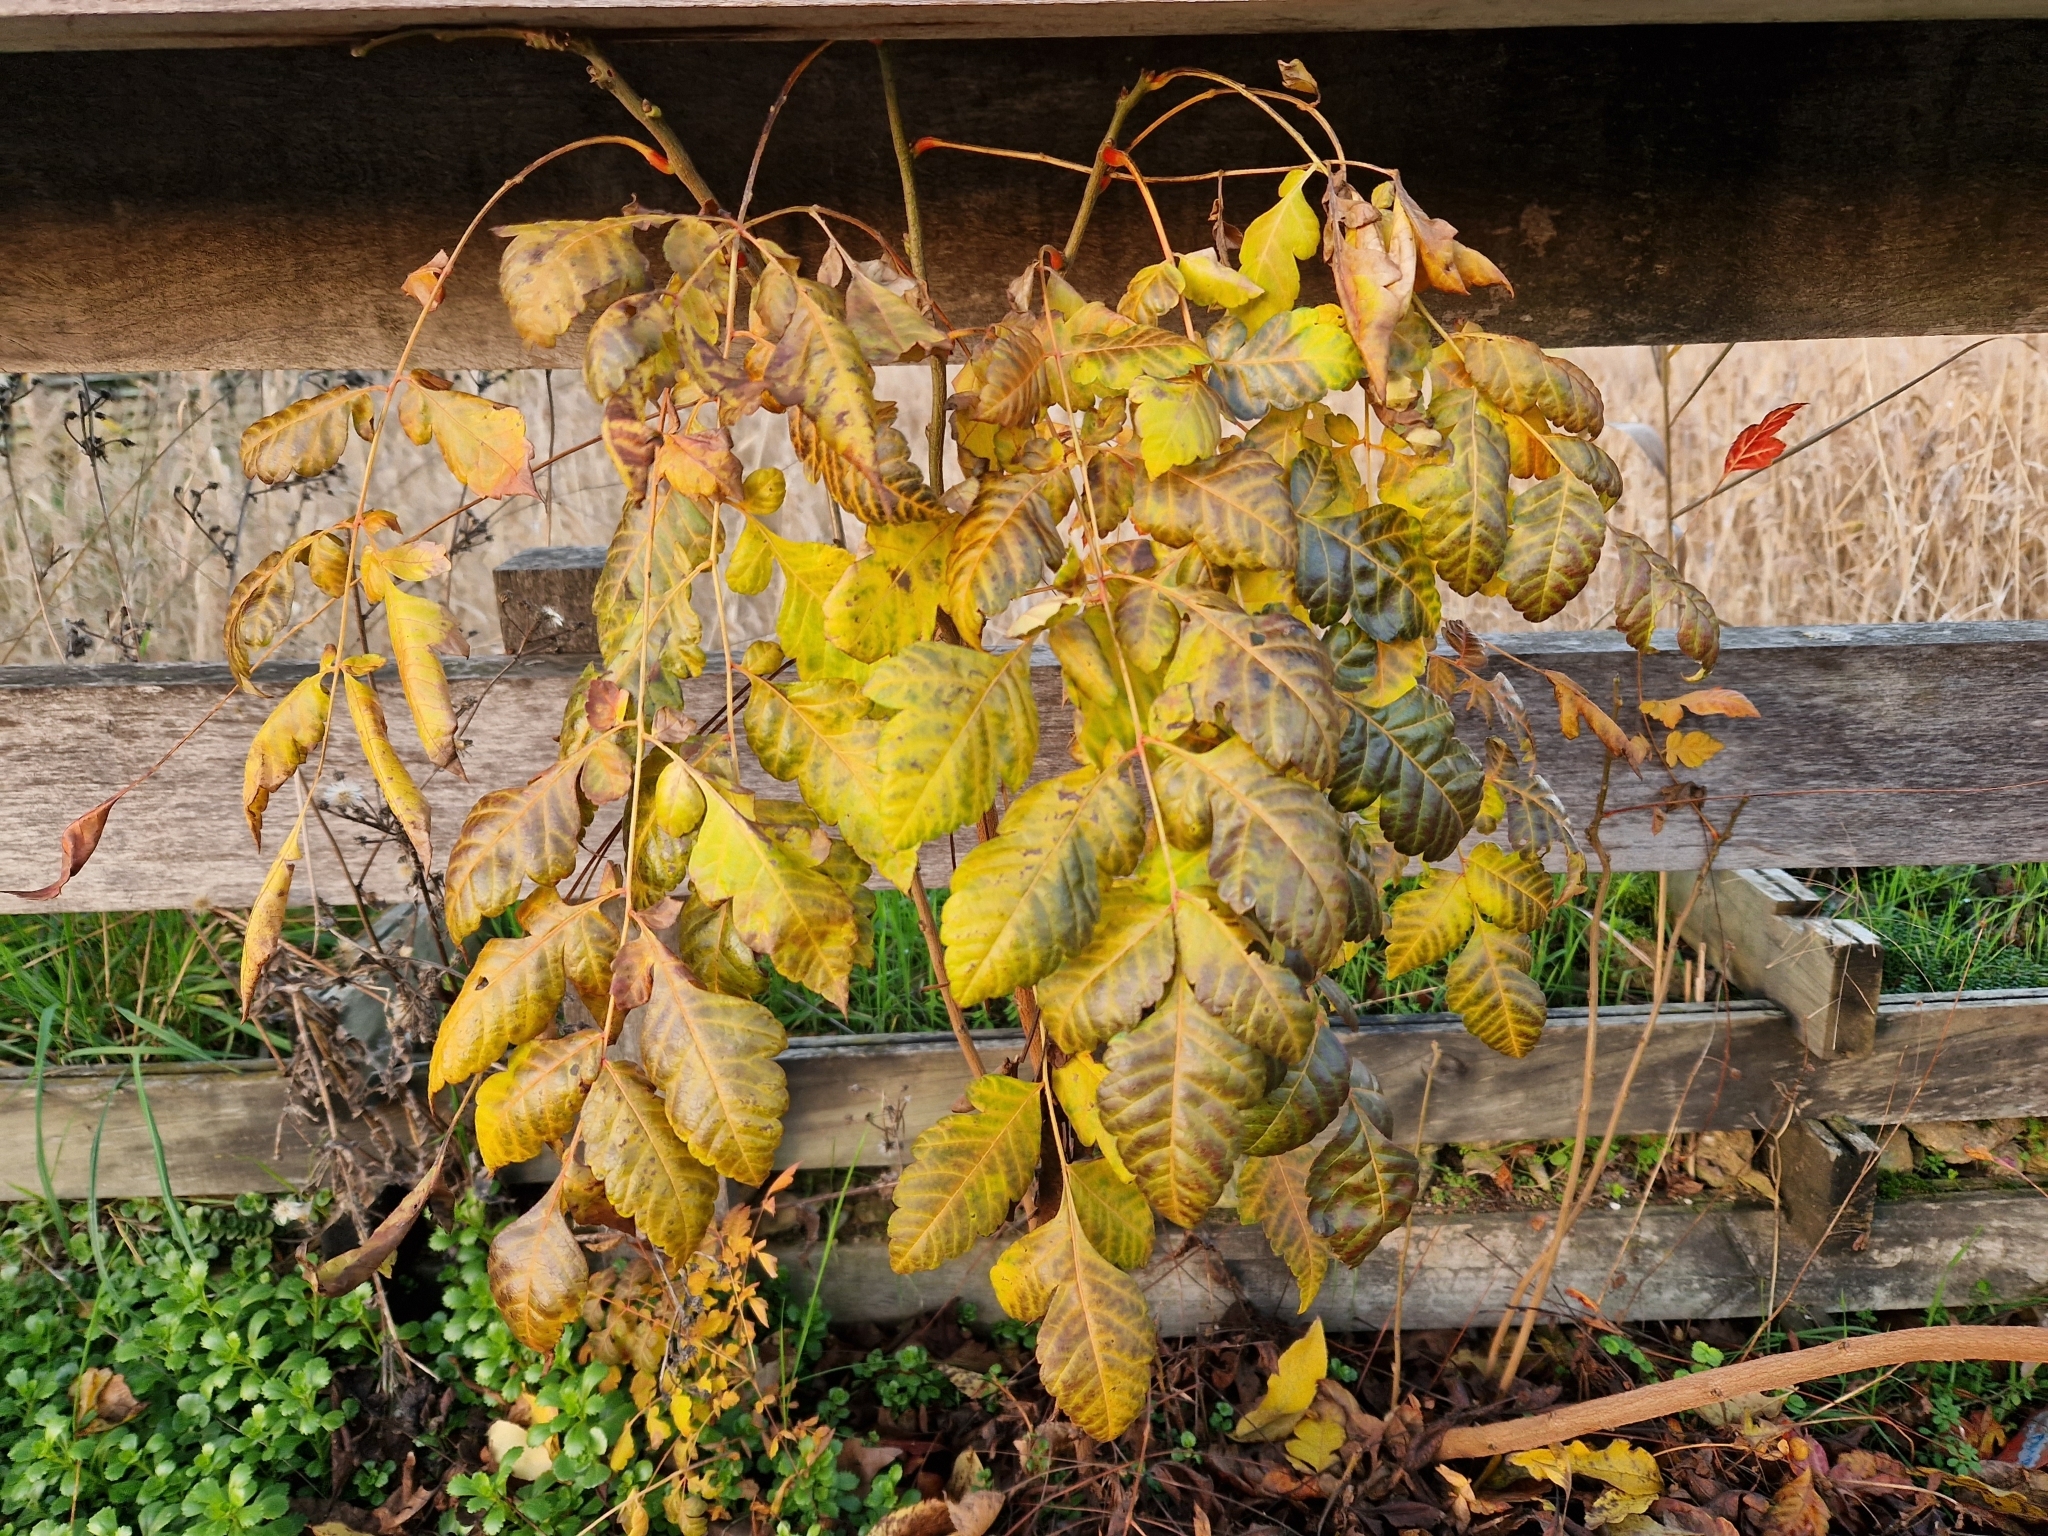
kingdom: Plantae
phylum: Tracheophyta
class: Magnoliopsida
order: Sapindales
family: Sapindaceae
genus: Koelreuteria
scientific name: Koelreuteria paniculata
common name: Pride-of-india
